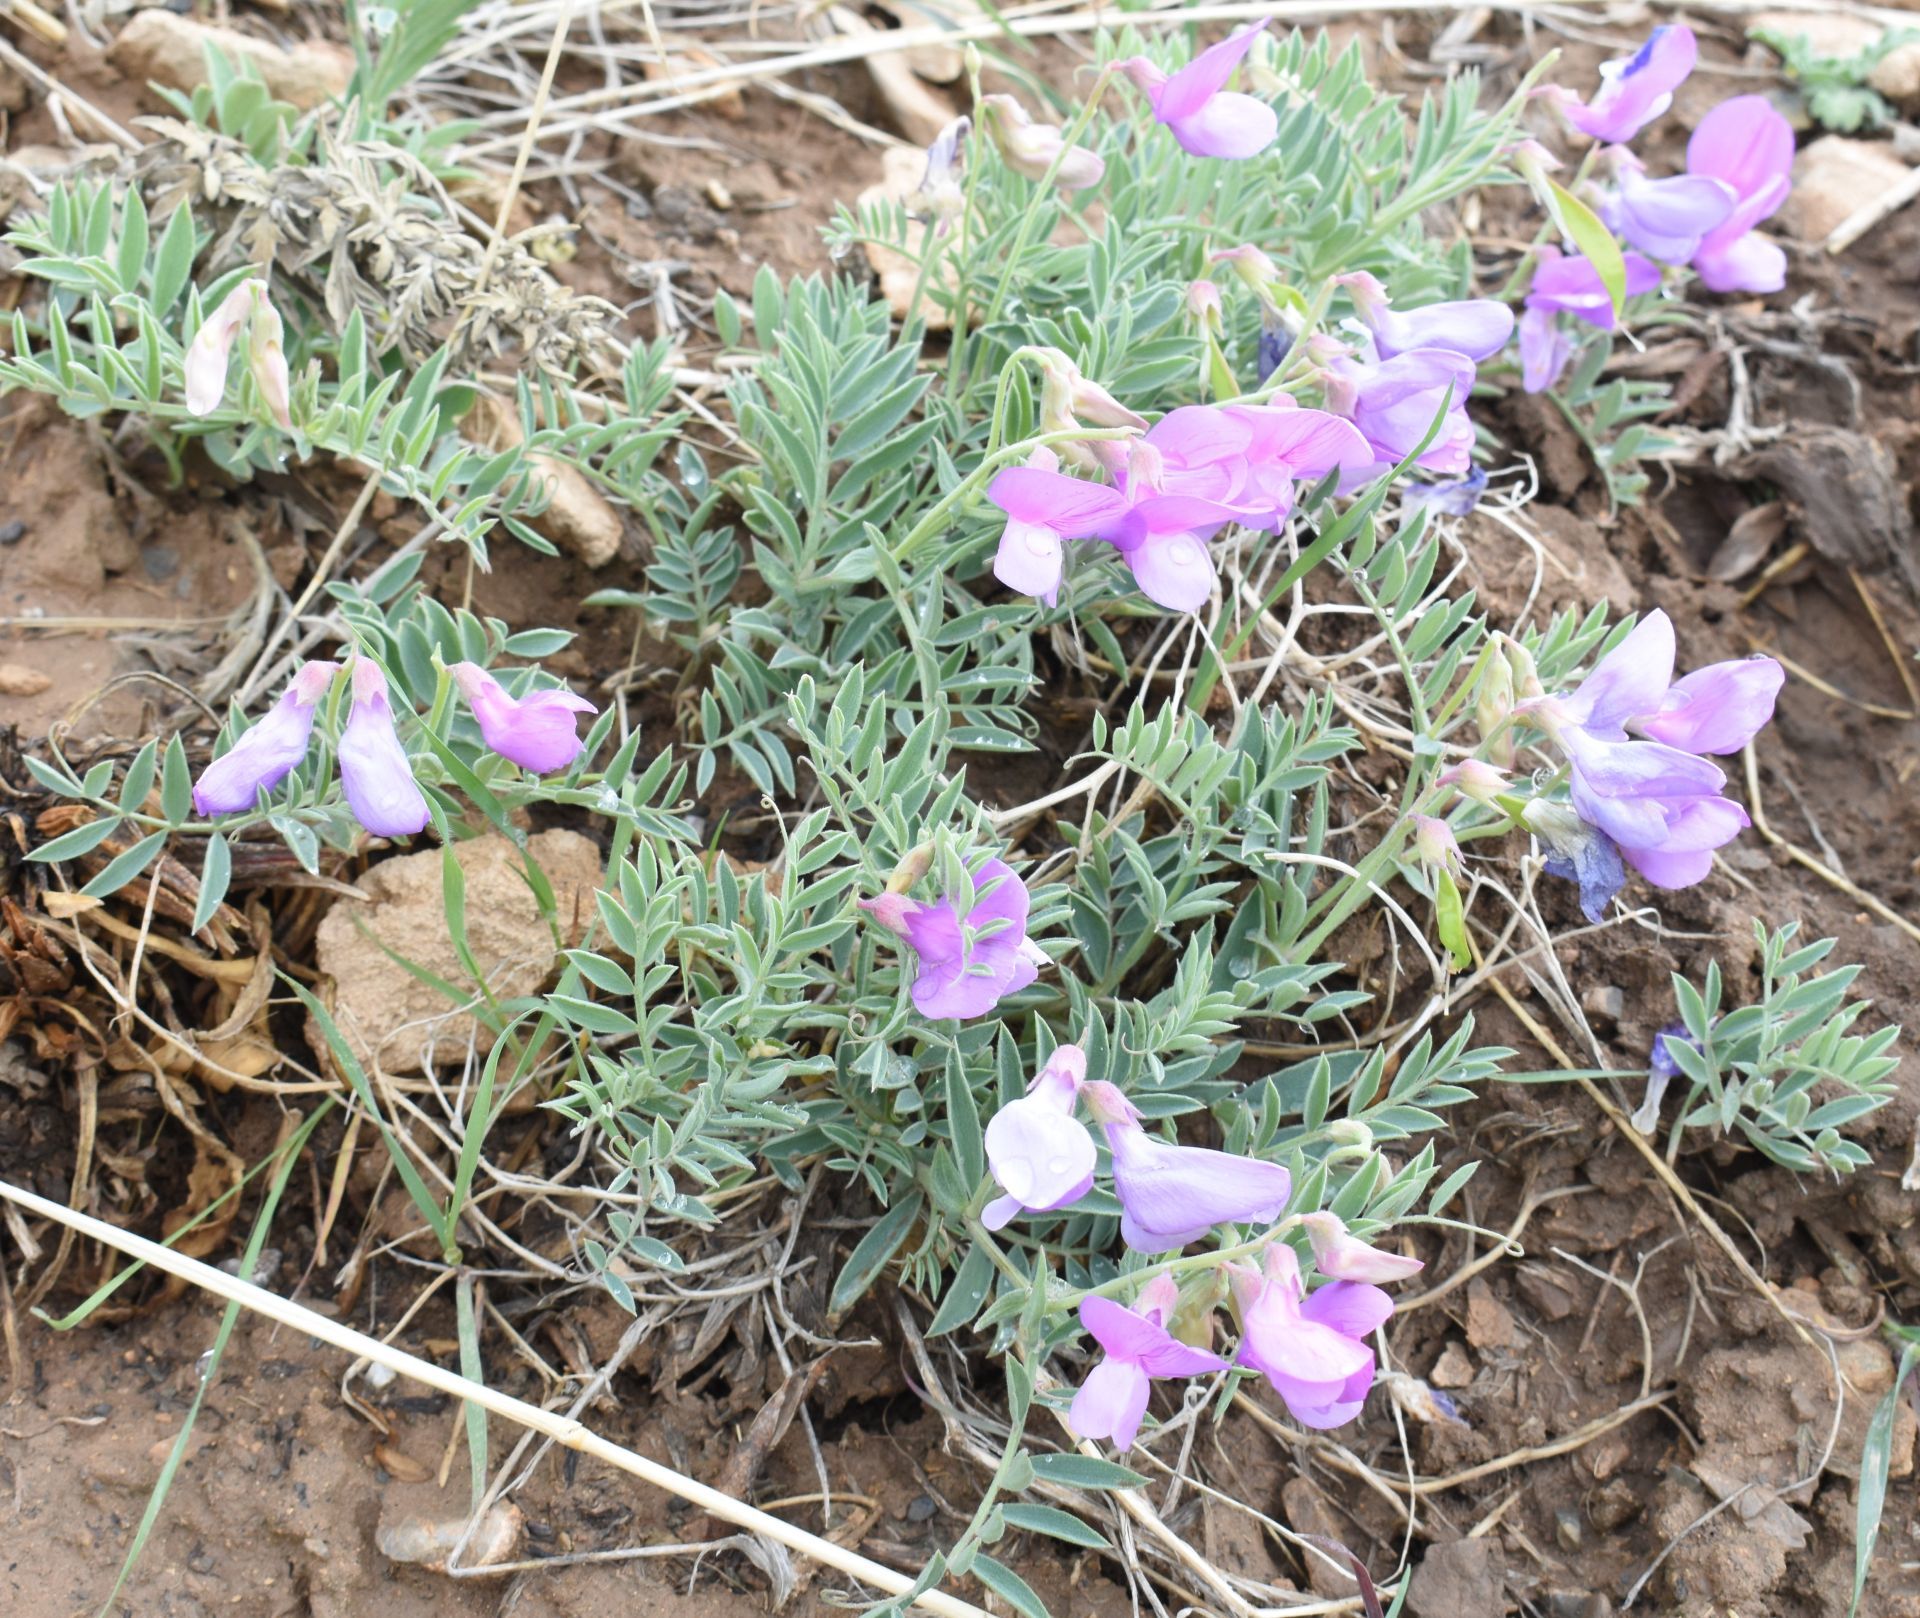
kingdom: Plantae
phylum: Tracheophyta
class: Magnoliopsida
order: Fabales
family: Fabaceae
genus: Lathyrus
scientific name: Lathyrus brachycalyx
